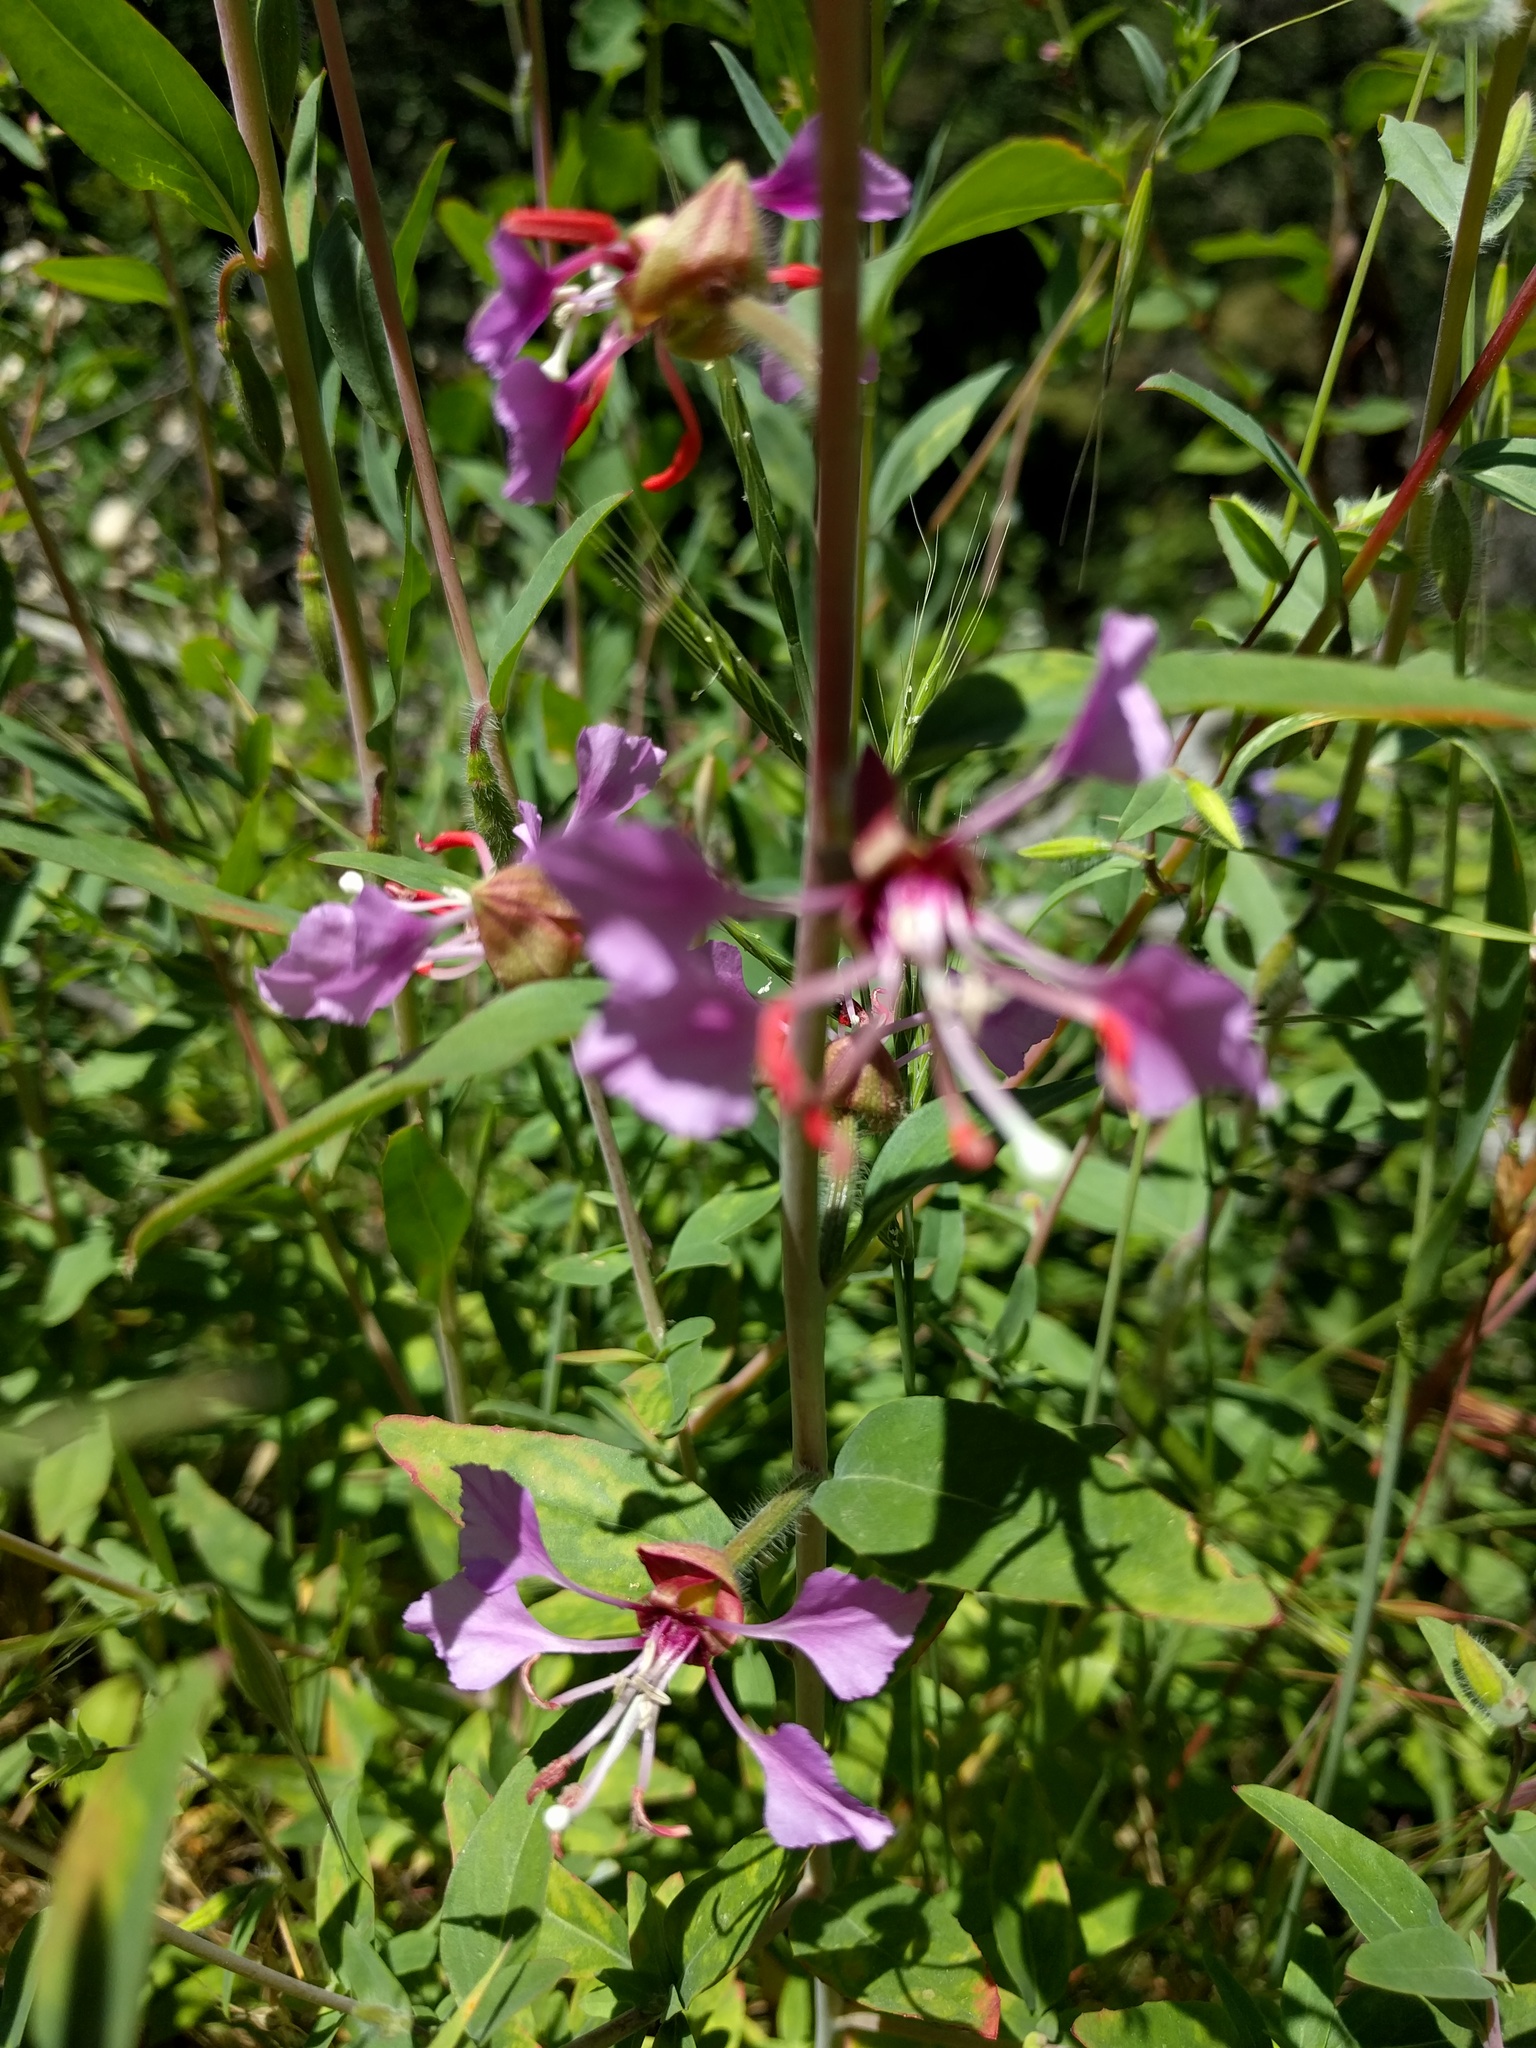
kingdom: Plantae
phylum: Tracheophyta
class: Magnoliopsida
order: Myrtales
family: Onagraceae
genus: Clarkia
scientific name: Clarkia unguiculata
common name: Clarkia
